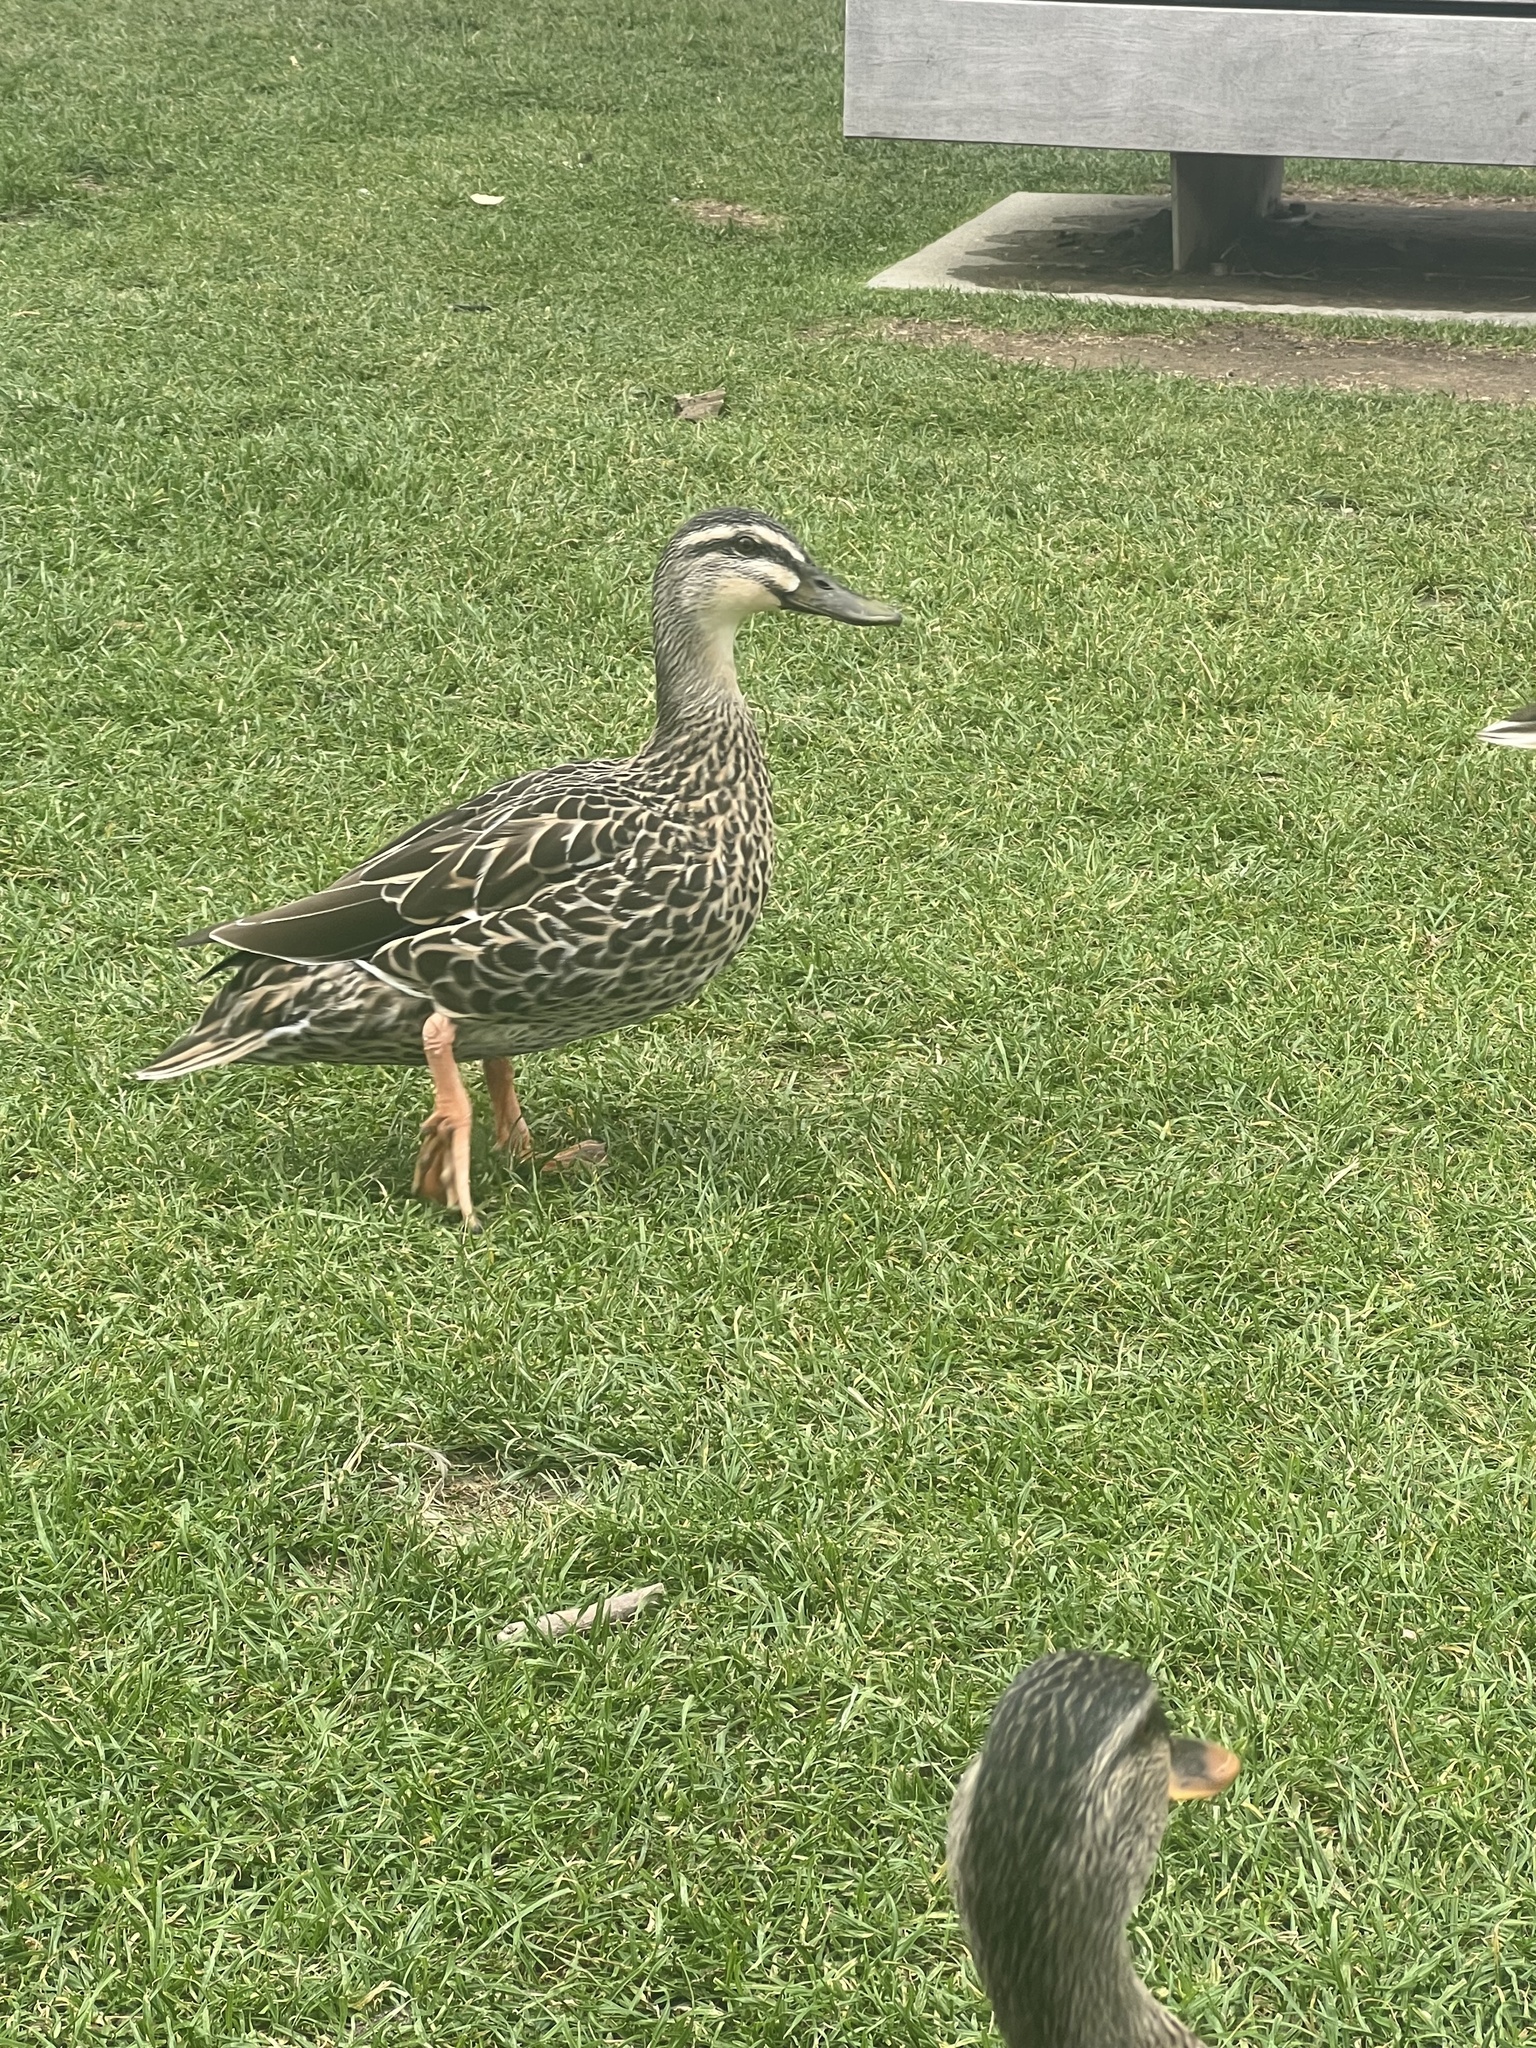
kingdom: Animalia
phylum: Chordata
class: Aves
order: Anseriformes
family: Anatidae
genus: Anas
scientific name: Anas
